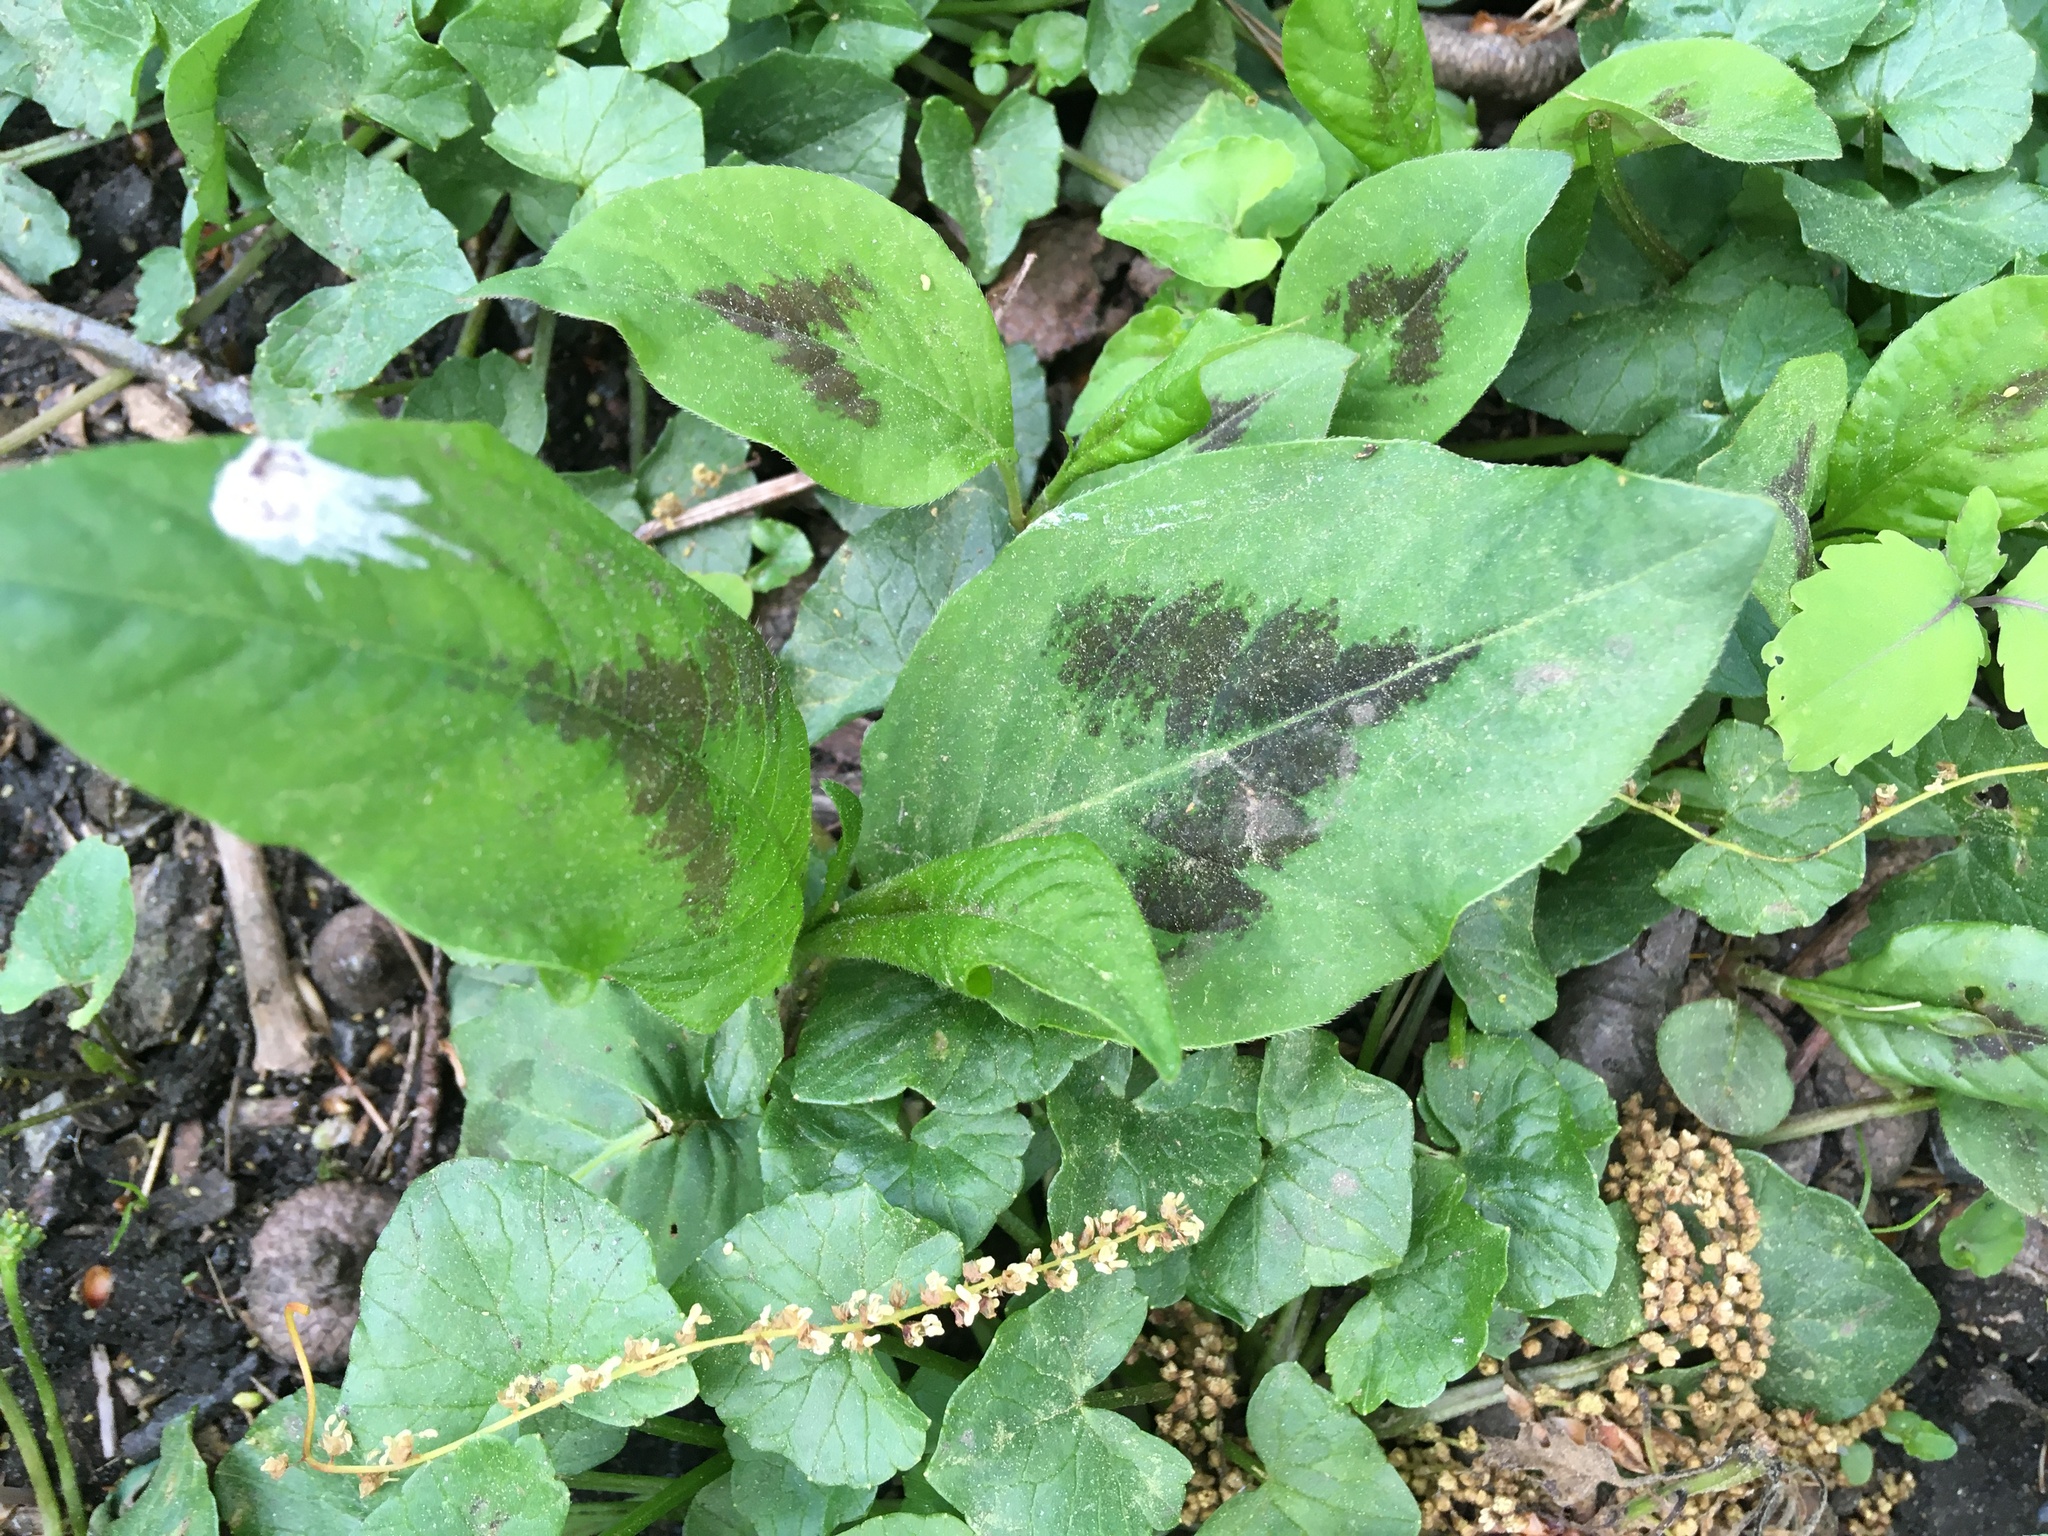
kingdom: Plantae
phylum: Tracheophyta
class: Magnoliopsida
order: Caryophyllales
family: Polygonaceae
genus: Persicaria
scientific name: Persicaria virginiana
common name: Jumpseed
